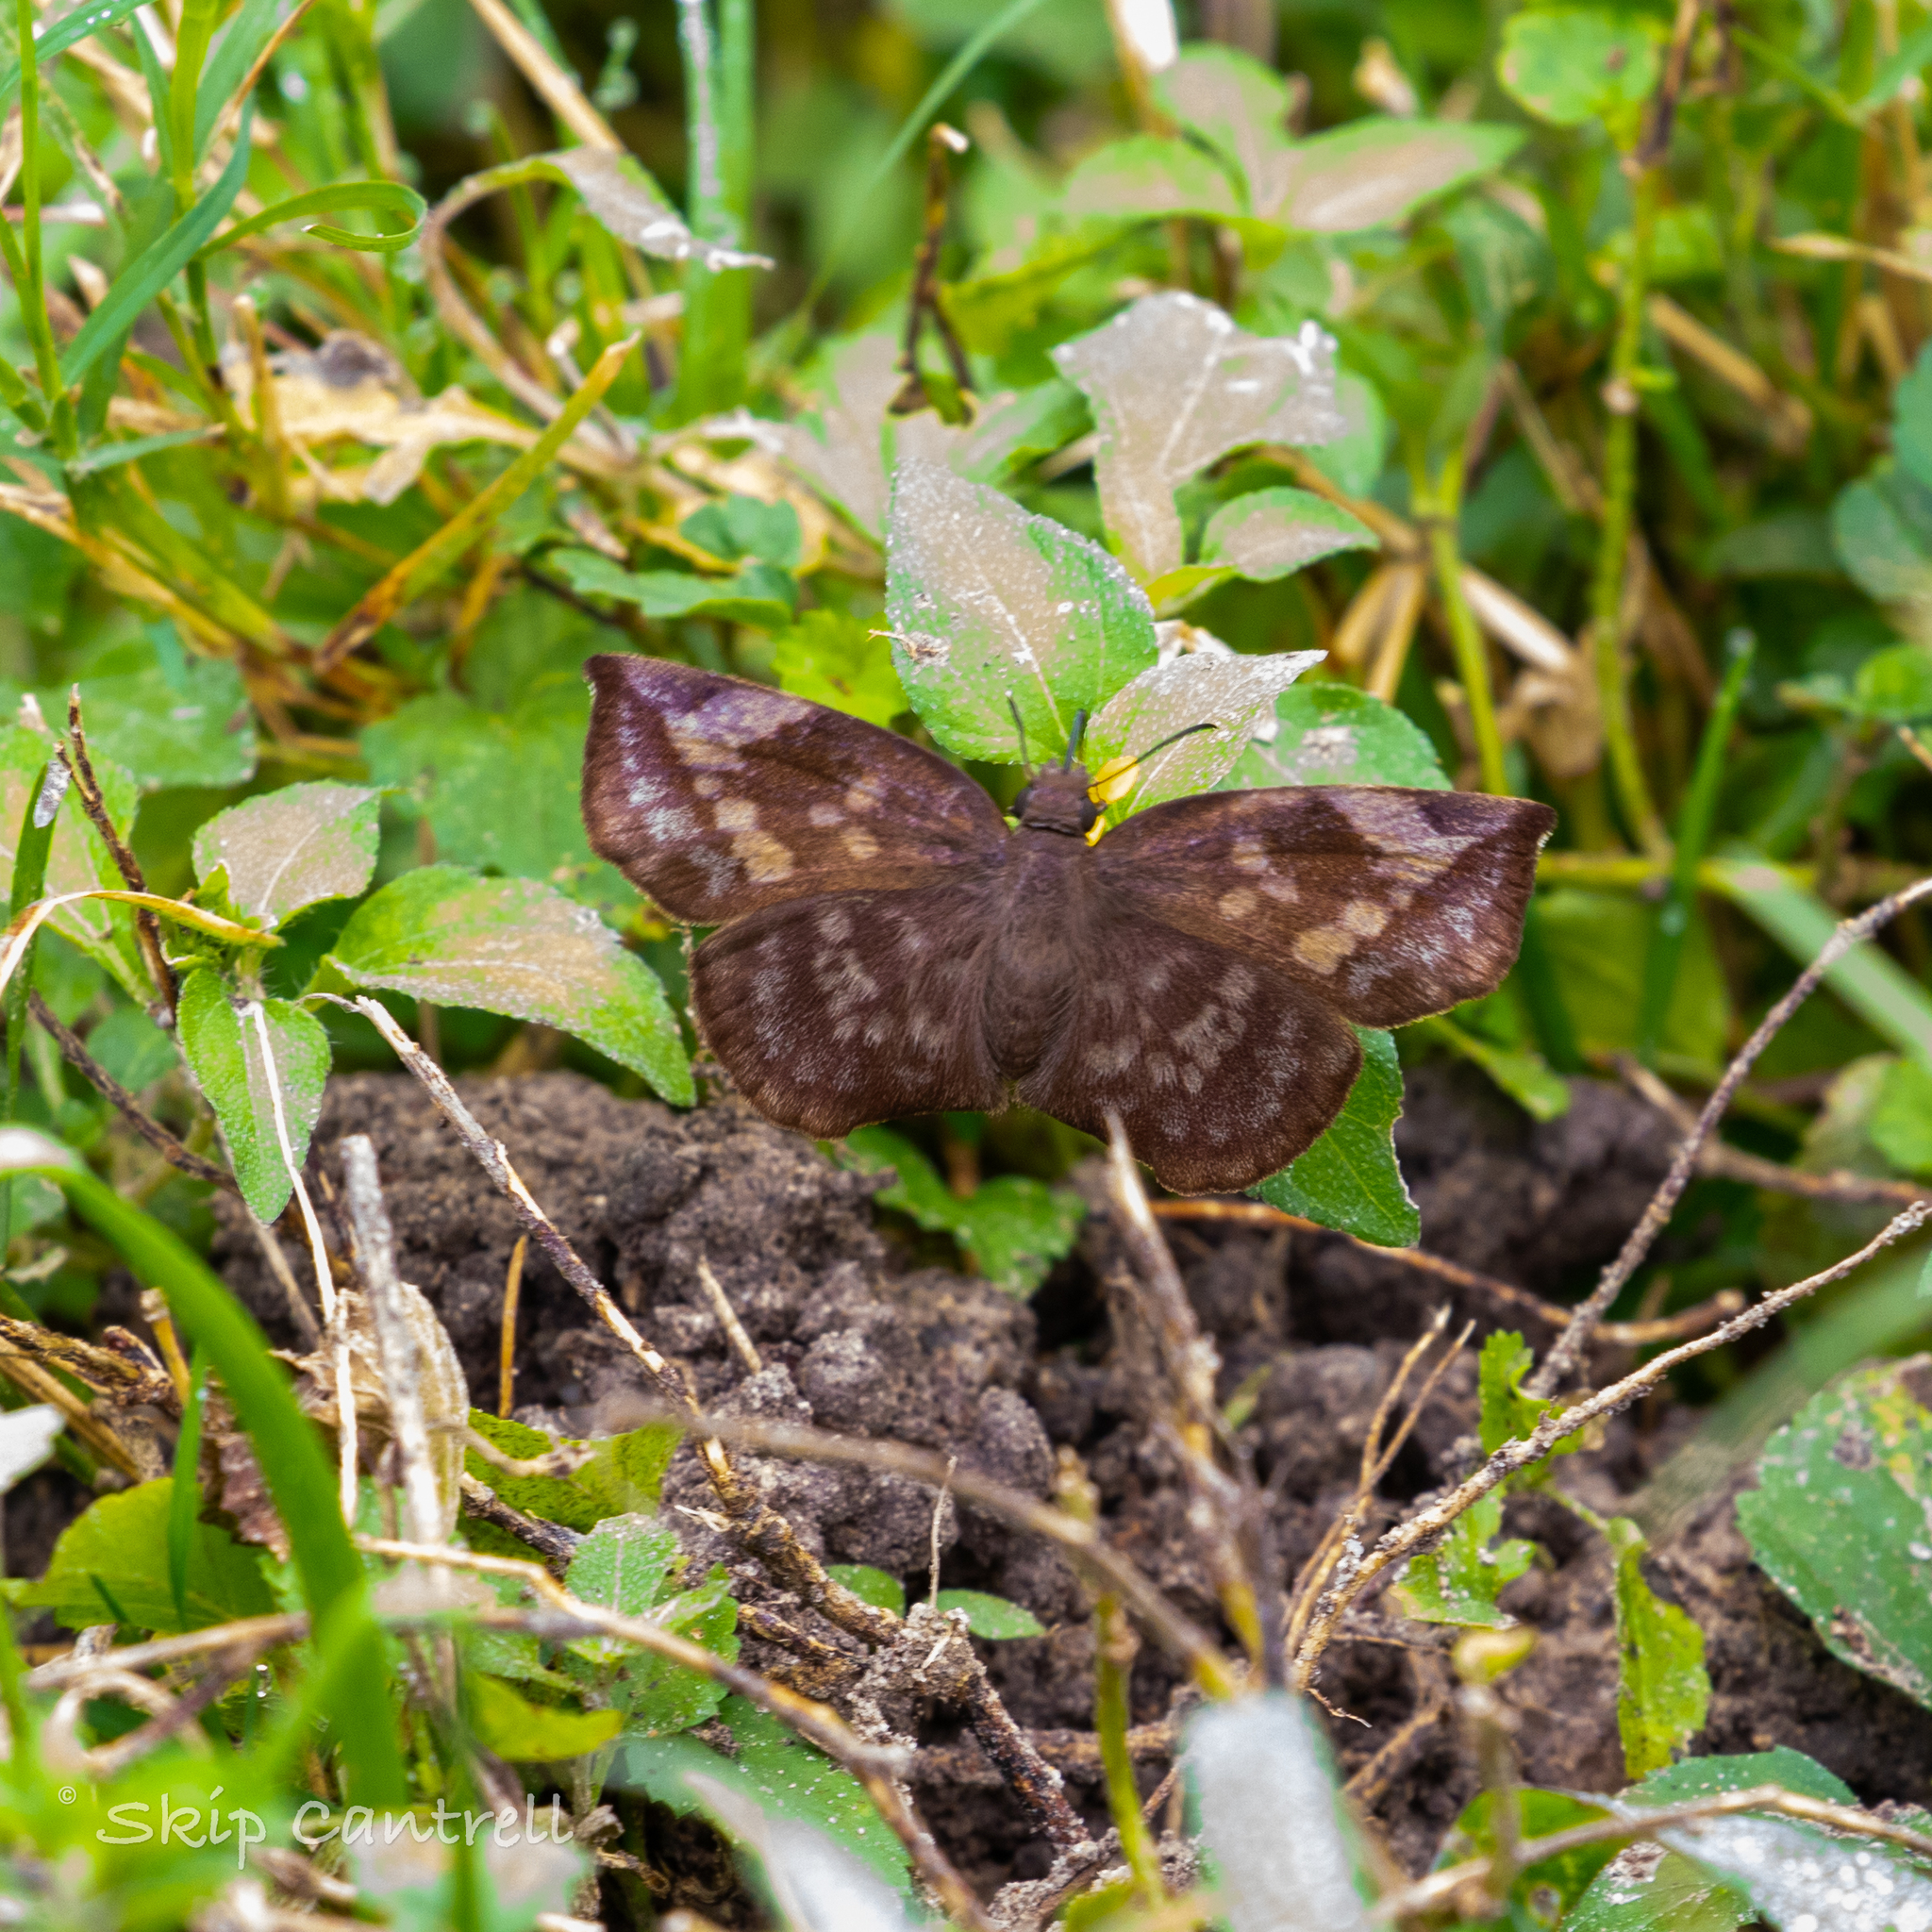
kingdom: Animalia
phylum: Arthropoda
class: Insecta
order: Lepidoptera
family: Hesperiidae
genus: Achlyodes
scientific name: Achlyodes thraso
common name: Sickle-winged skipper
